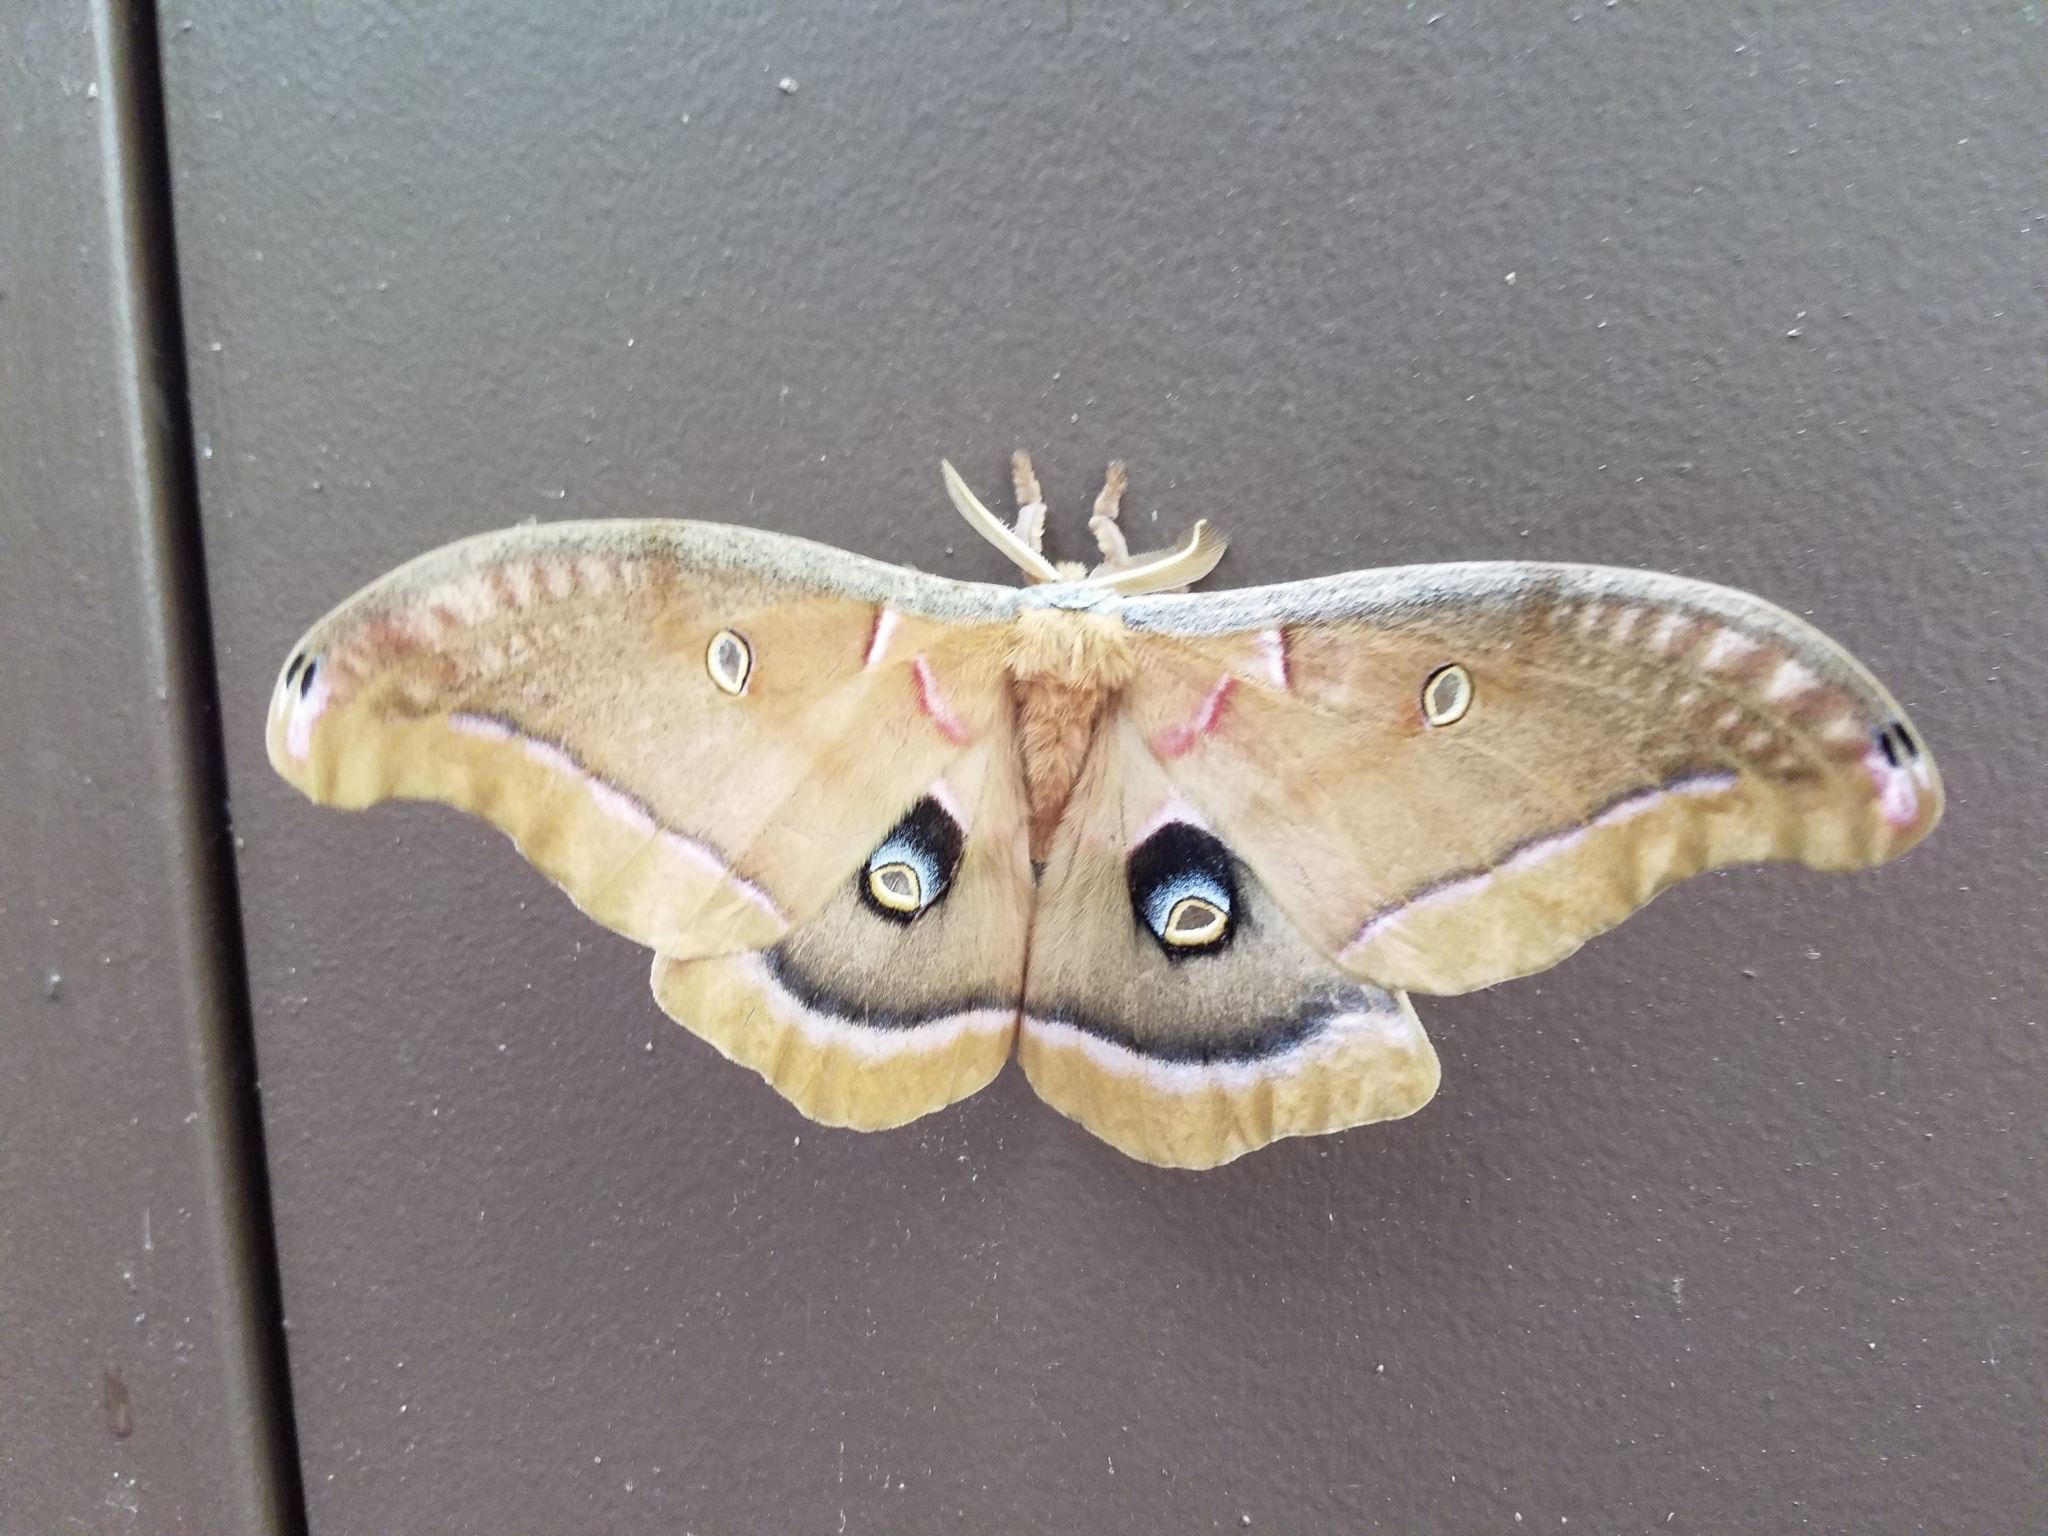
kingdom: Animalia
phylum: Arthropoda
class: Insecta
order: Lepidoptera
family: Saturniidae
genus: Antheraea
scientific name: Antheraea polyphemus
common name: Polyphemus moth
